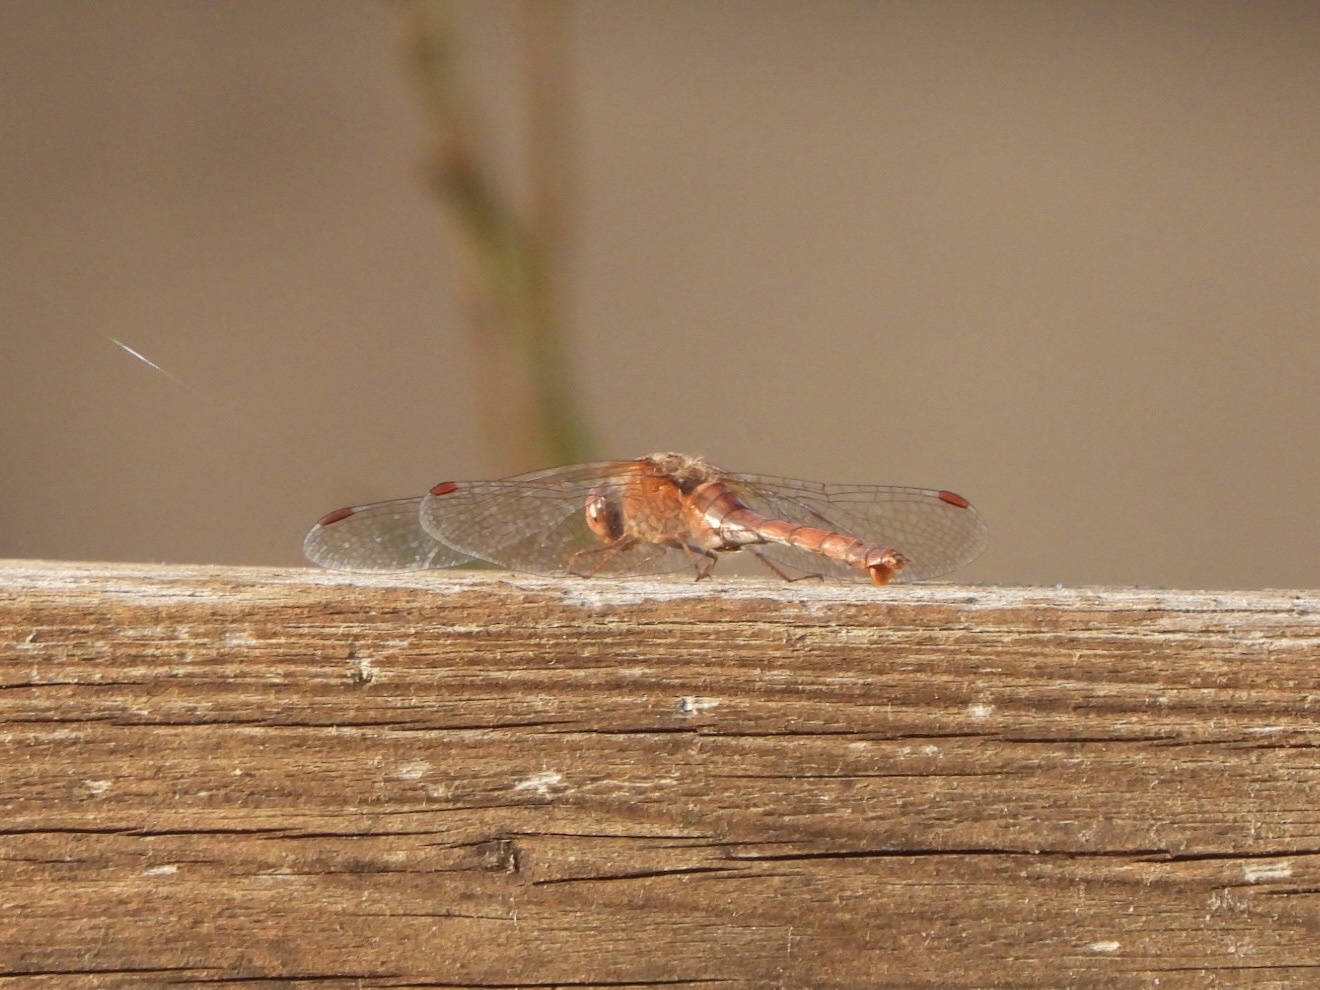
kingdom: Animalia
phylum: Arthropoda
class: Insecta
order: Odonata
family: Libellulidae
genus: Sympetrum
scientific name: Sympetrum vicinum
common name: Autumn meadowhawk
